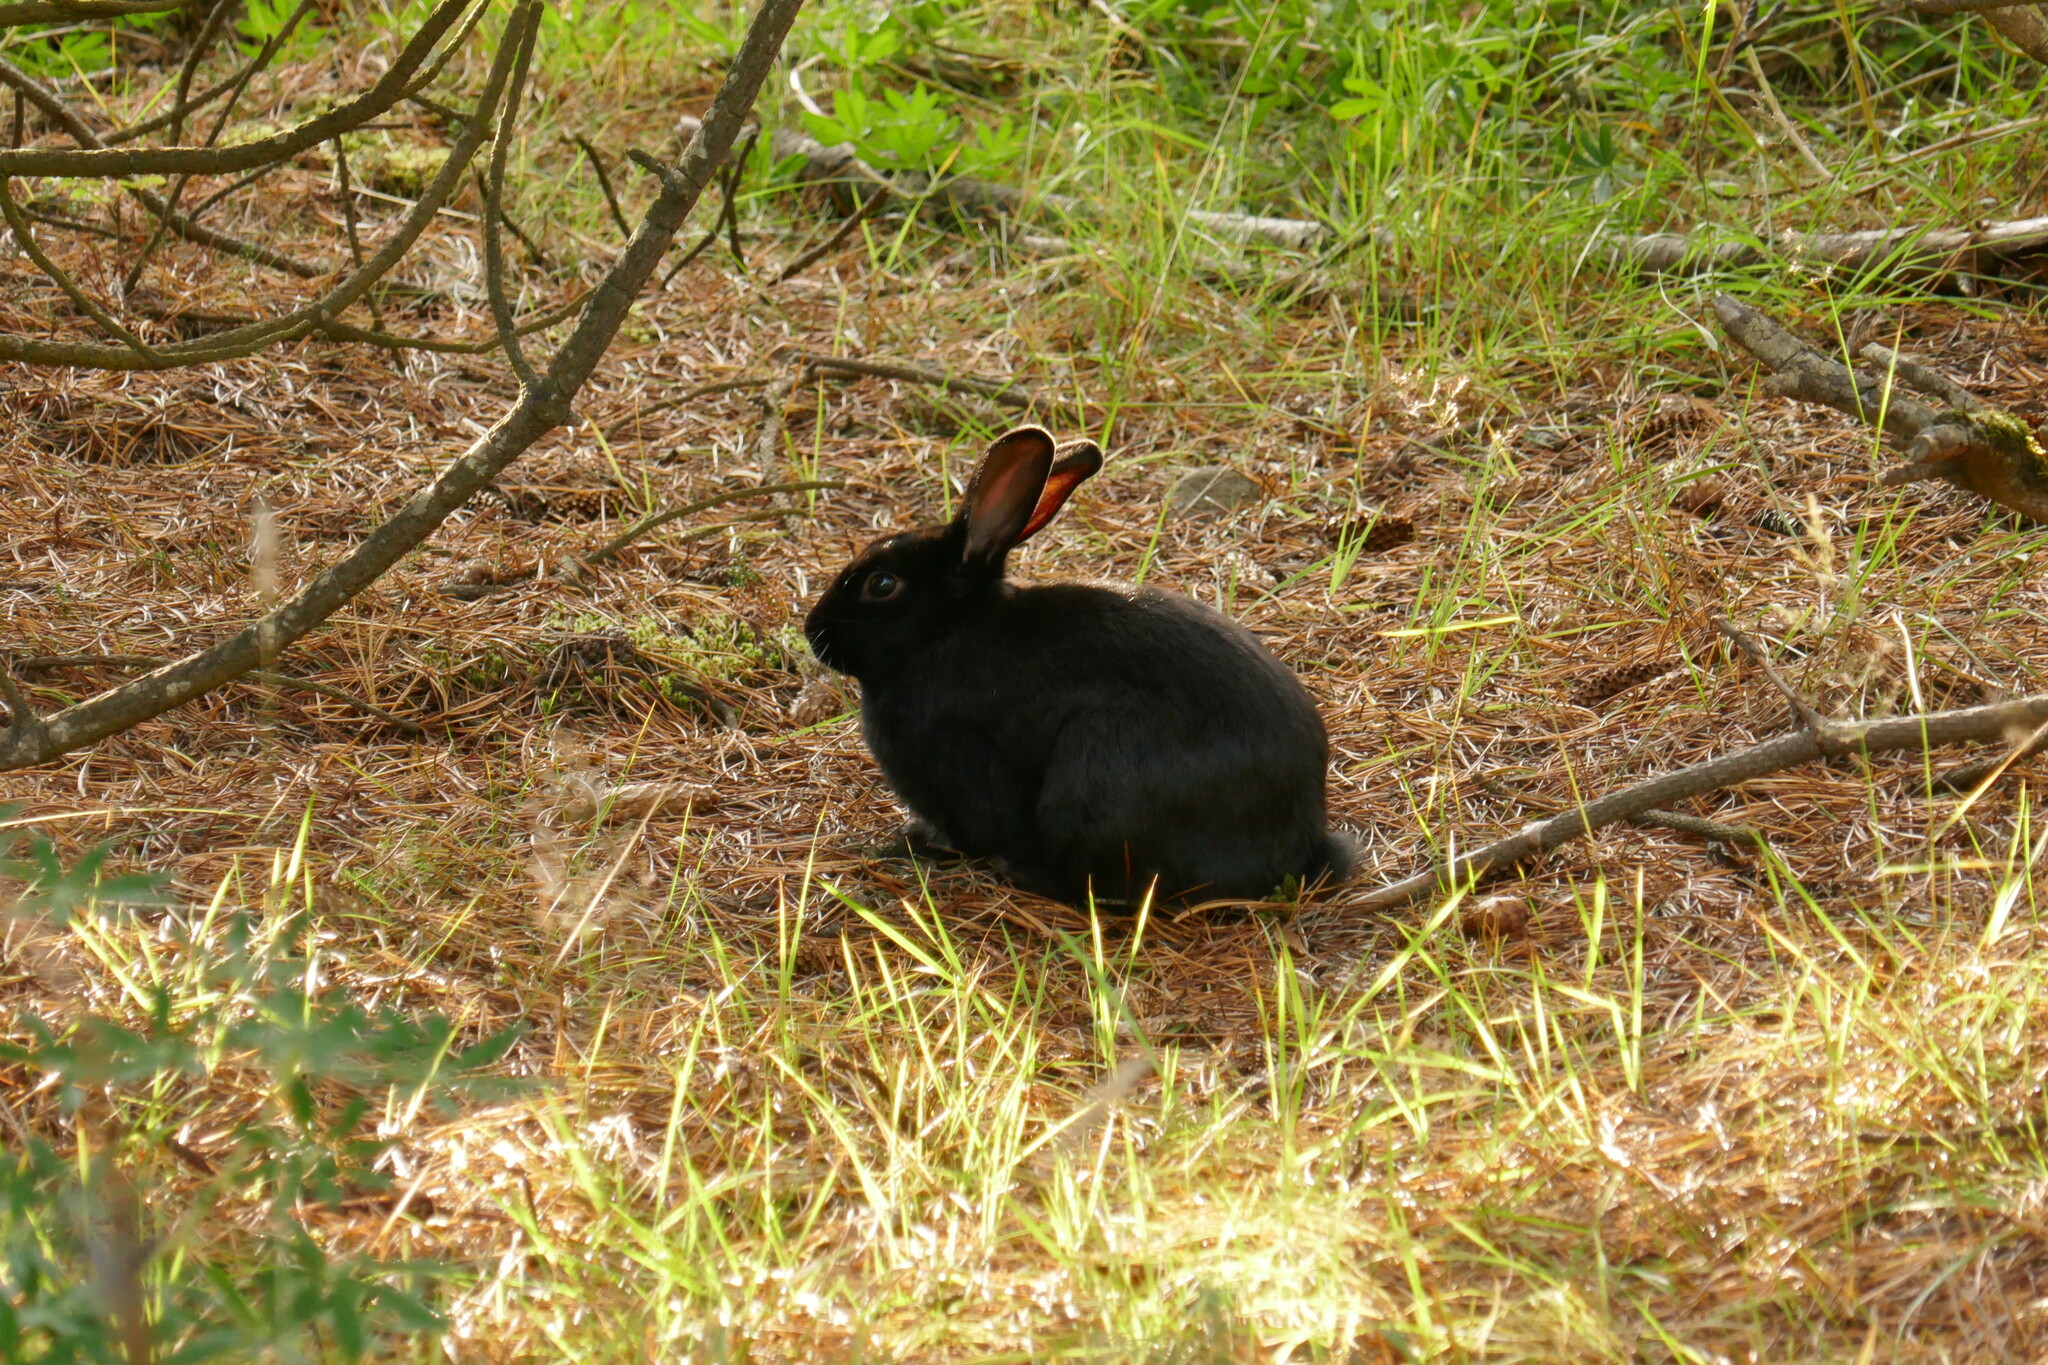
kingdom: Animalia
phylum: Chordata
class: Mammalia
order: Lagomorpha
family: Leporidae
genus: Oryctolagus
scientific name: Oryctolagus cuniculus
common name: European rabbit
